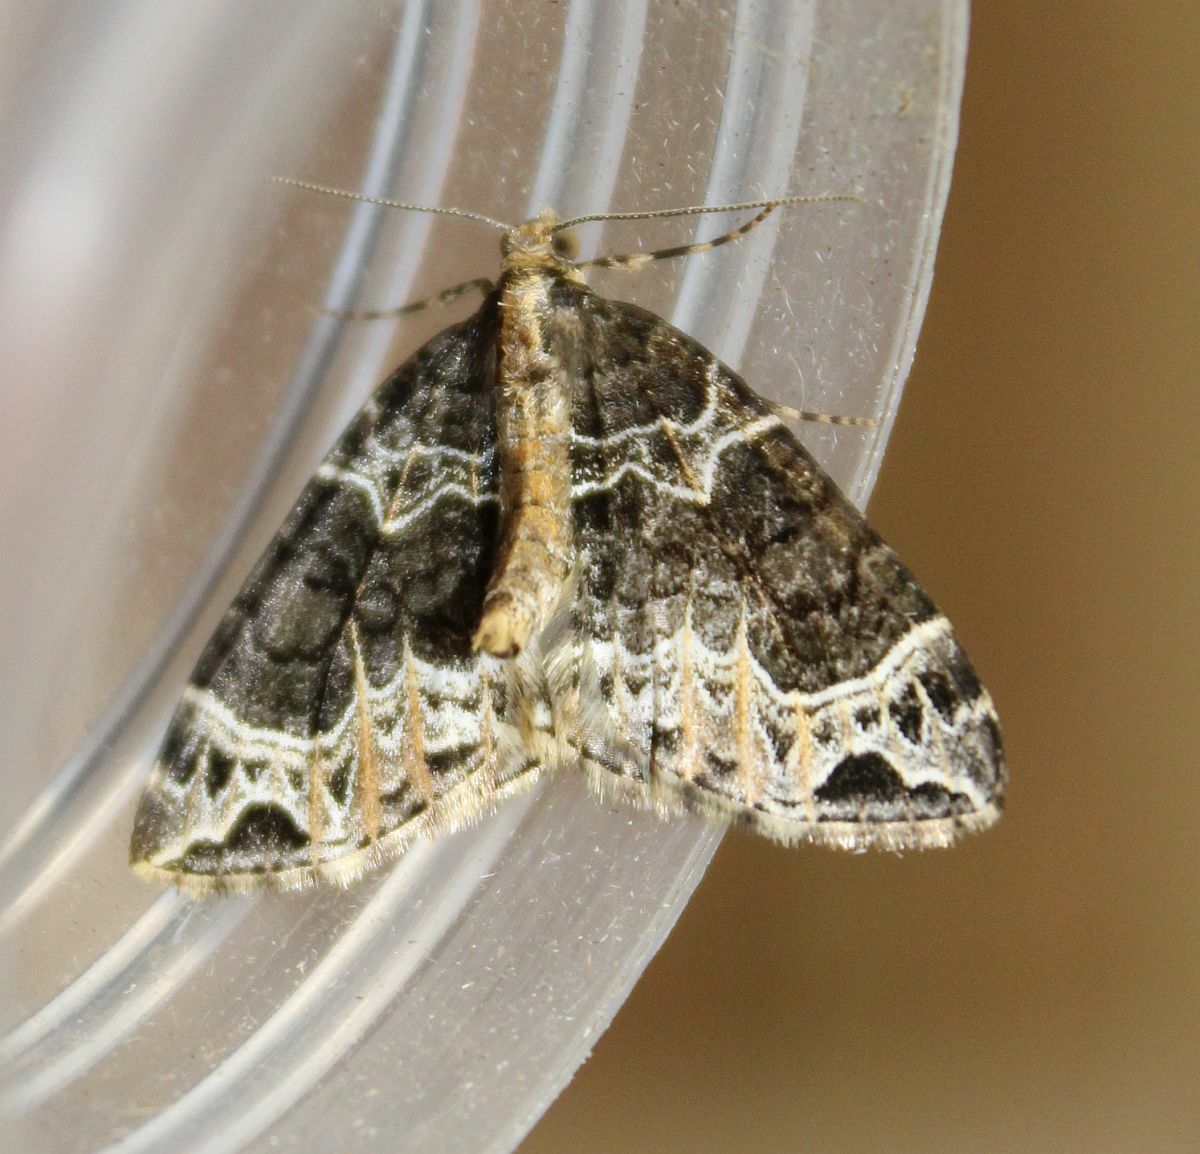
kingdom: Animalia
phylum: Arthropoda
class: Insecta
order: Lepidoptera
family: Geometridae
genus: Ecliptopera
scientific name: Ecliptopera silaceata
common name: Small phoenix
